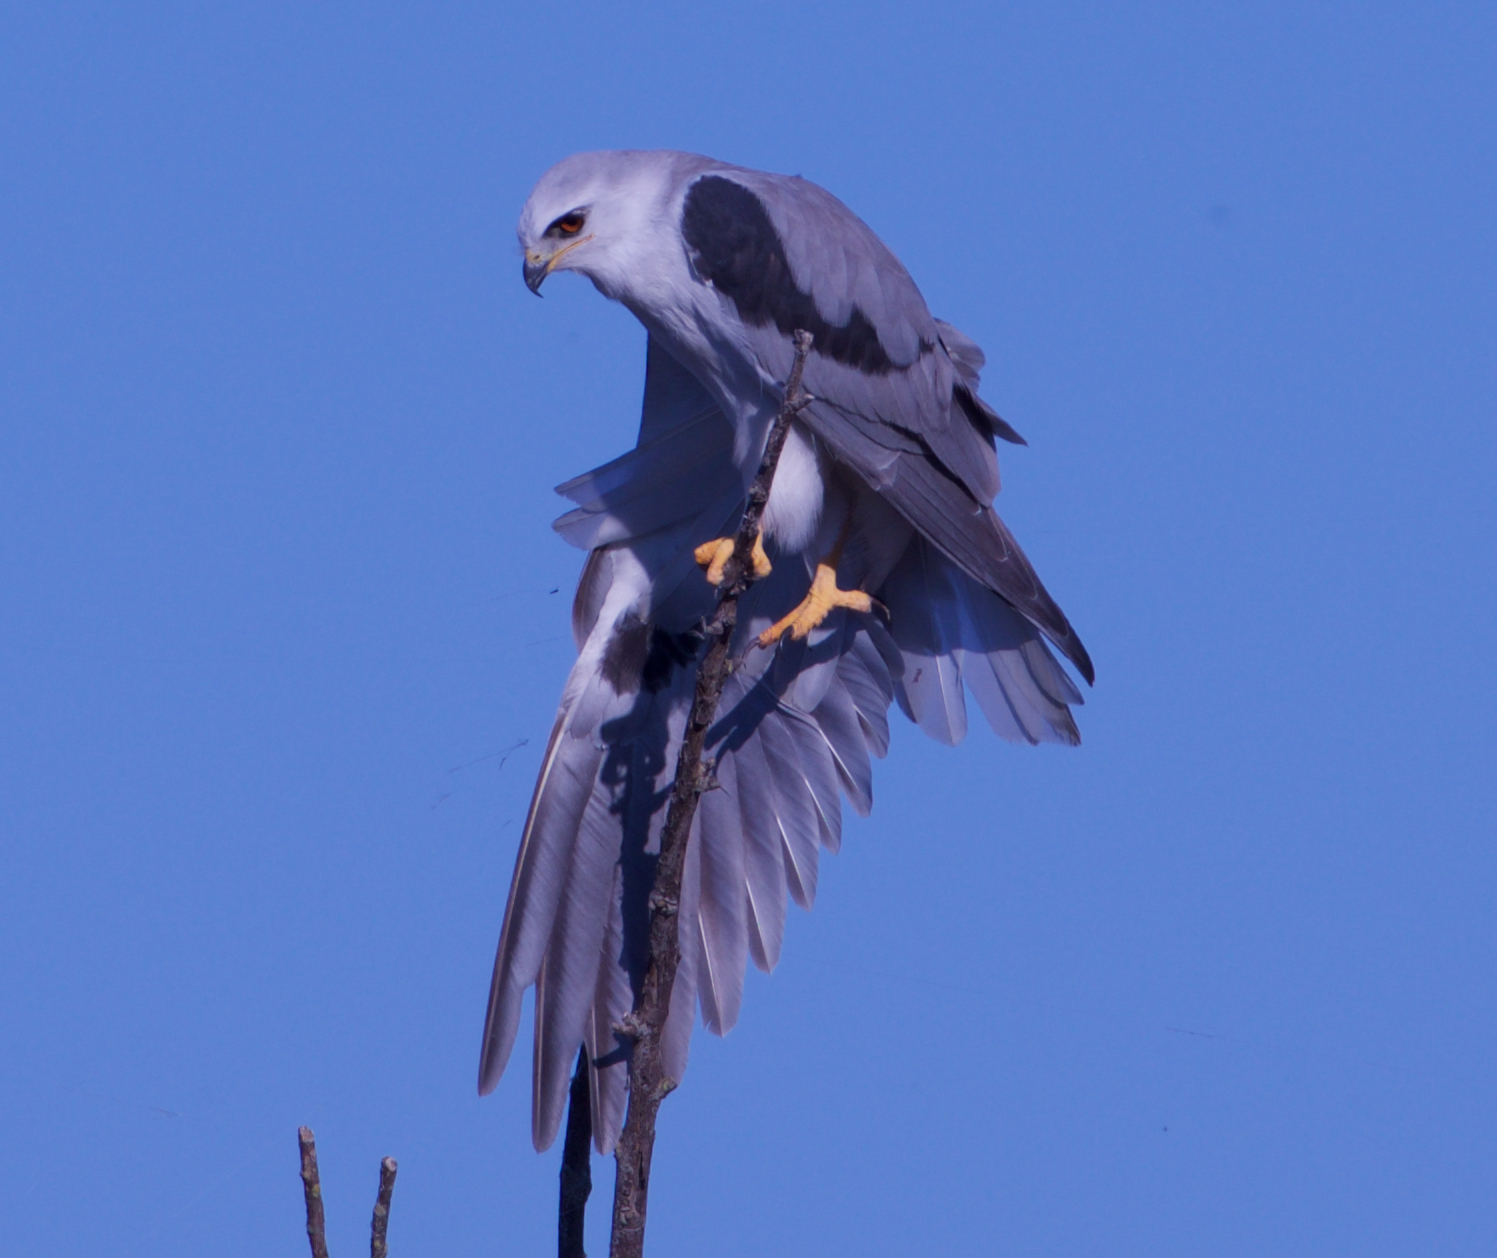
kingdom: Animalia
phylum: Chordata
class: Aves
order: Accipitriformes
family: Accipitridae
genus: Elanus
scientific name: Elanus leucurus
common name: White-tailed kite
